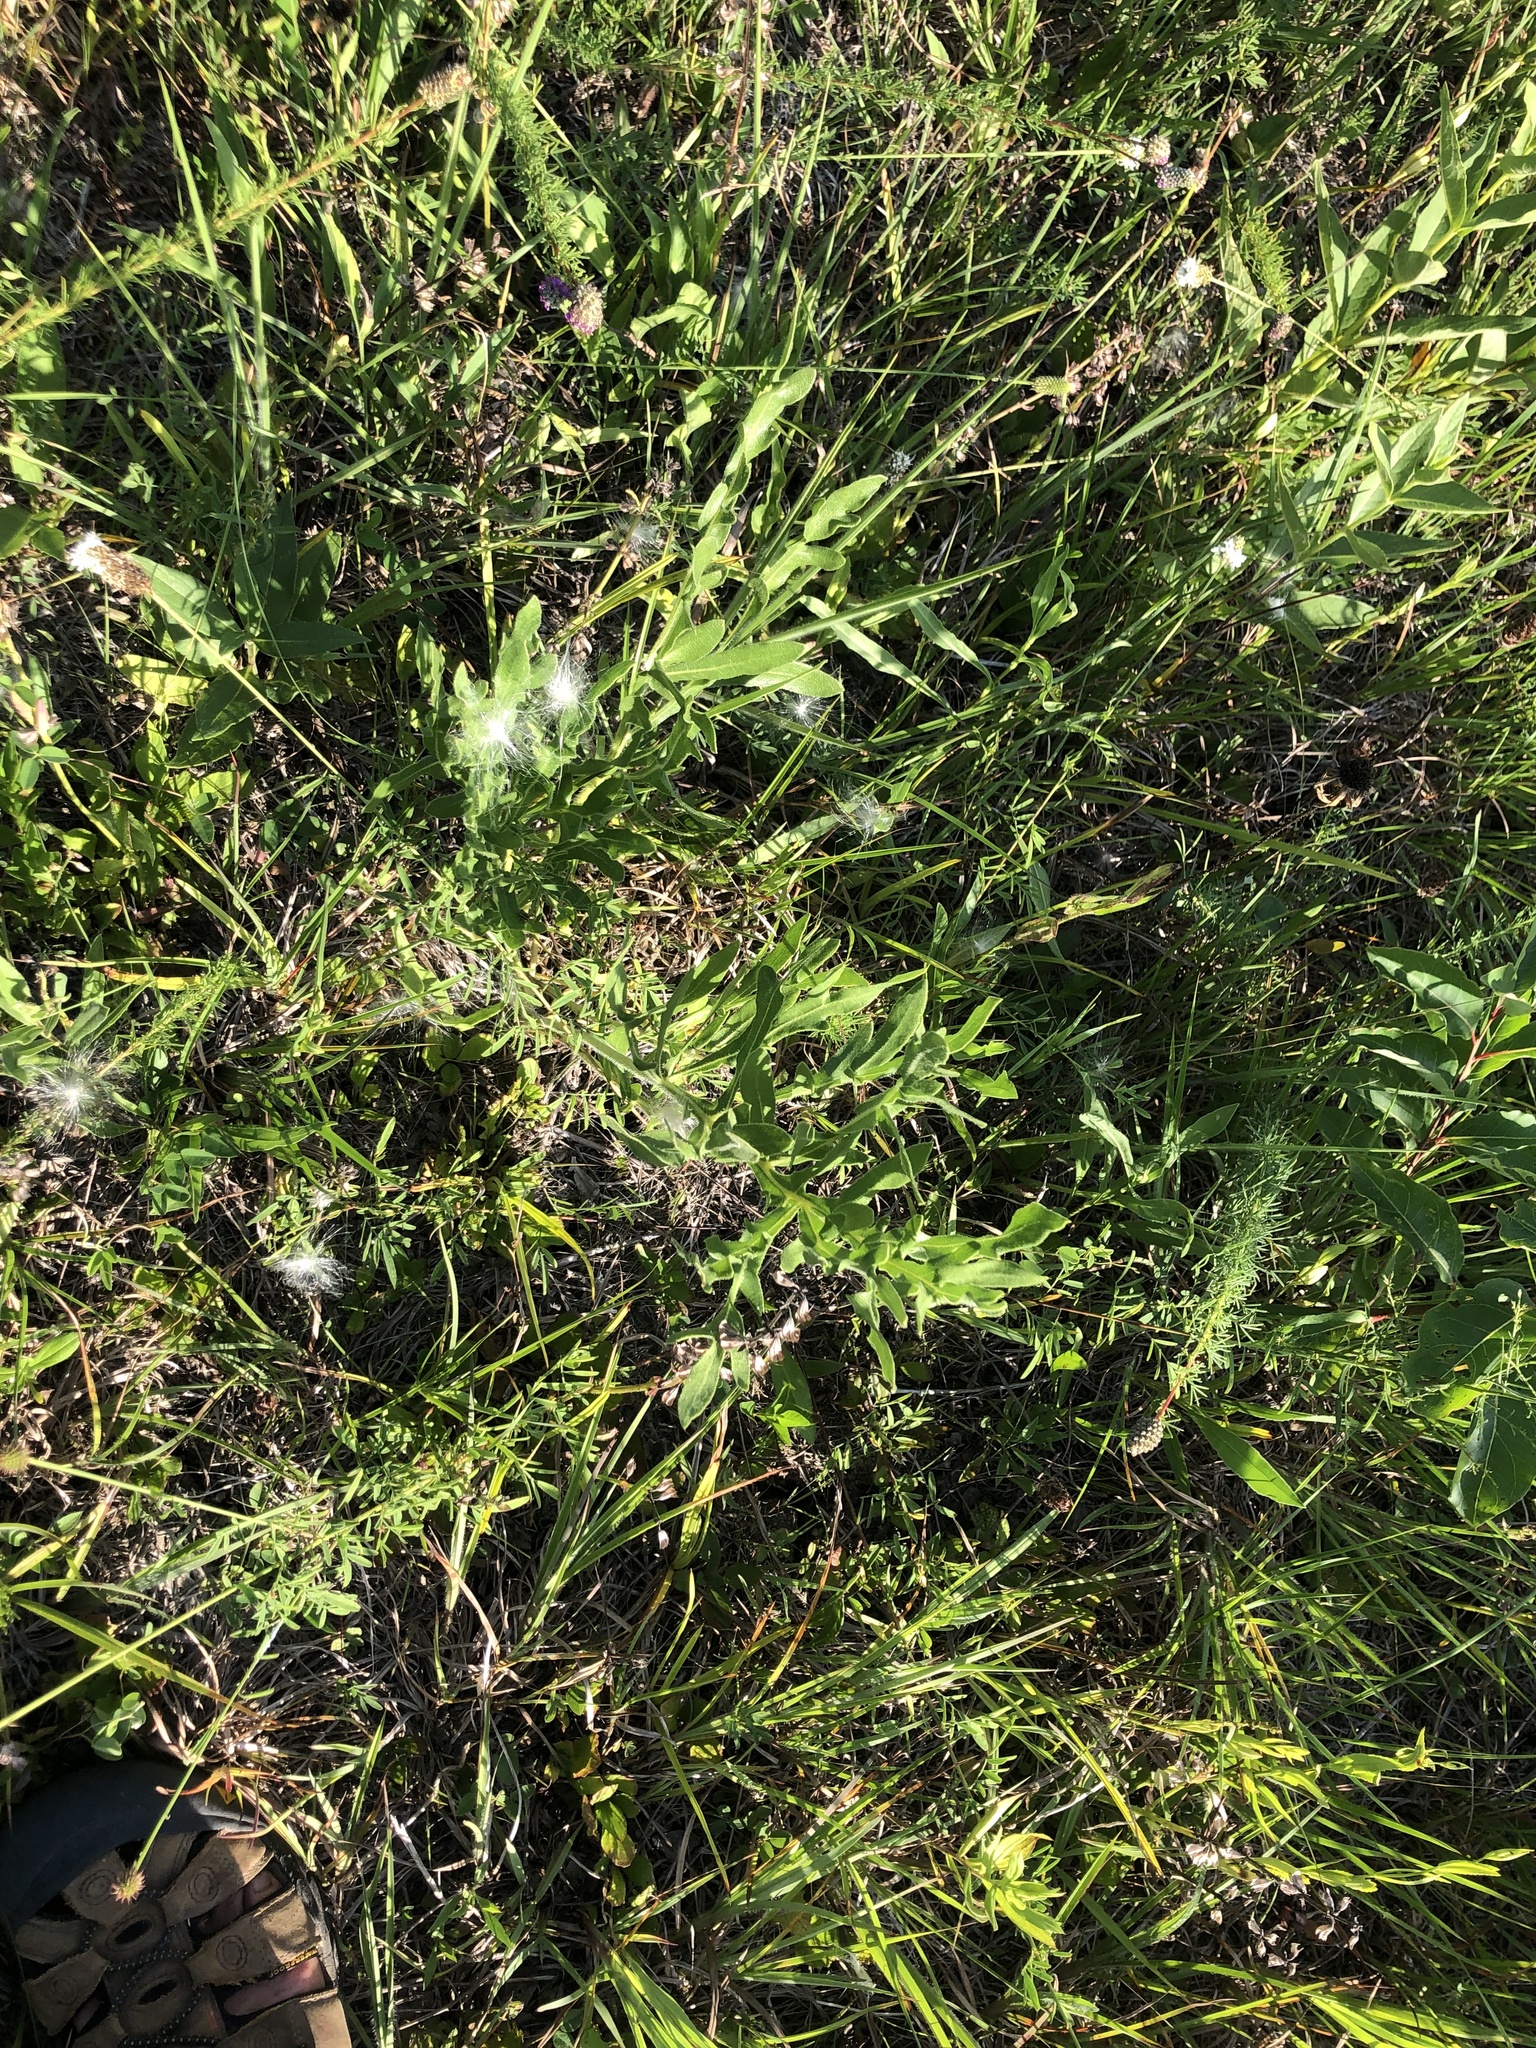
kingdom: Plantae
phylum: Tracheophyta
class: Magnoliopsida
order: Asterales
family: Asteraceae
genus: Silphium
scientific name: Silphium laciniatum
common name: Polarplant
